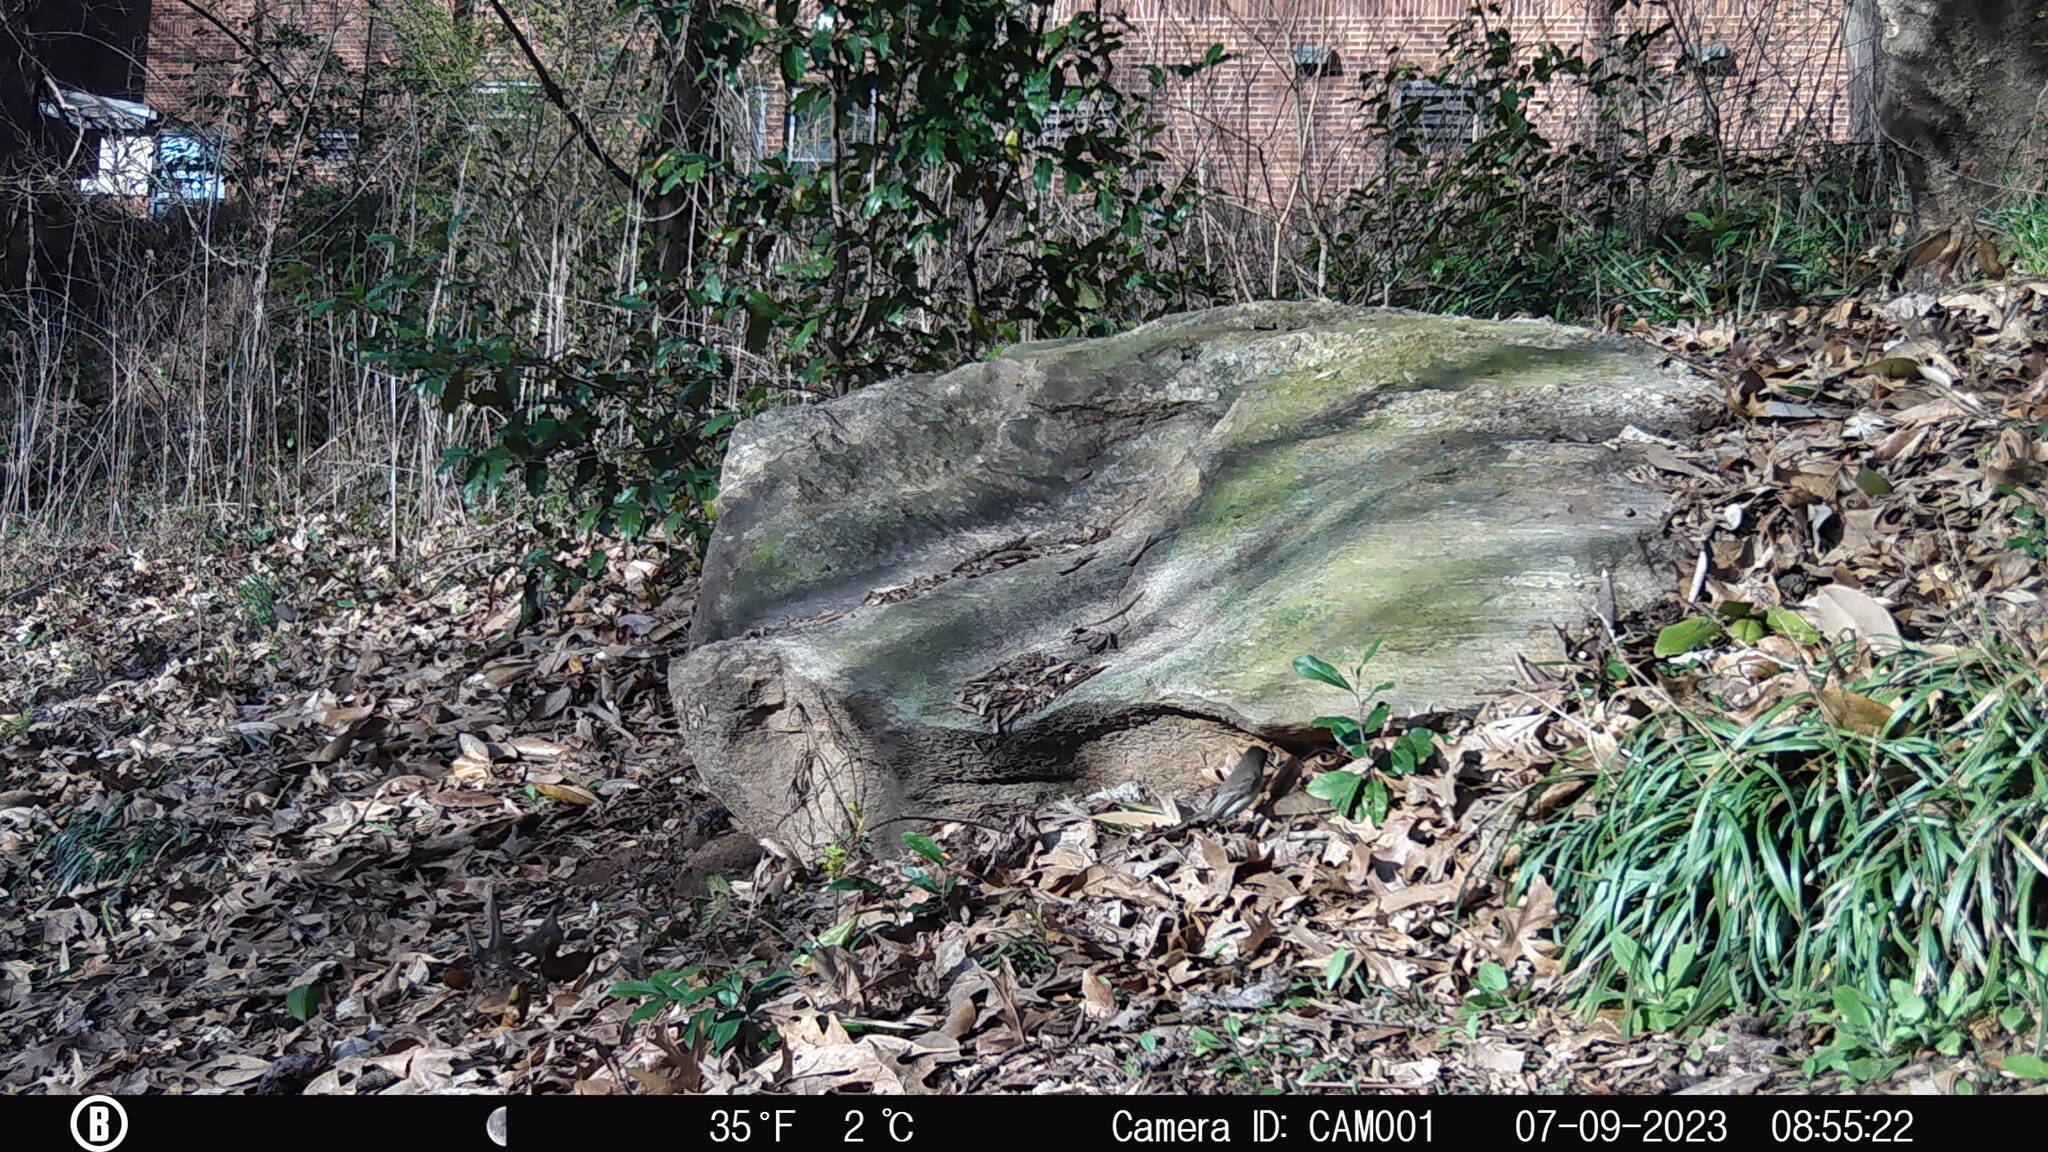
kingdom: Animalia
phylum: Chordata
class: Aves
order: Passeriformes
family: Mimidae
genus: Mimus
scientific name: Mimus polyglottos
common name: Northern mockingbird
